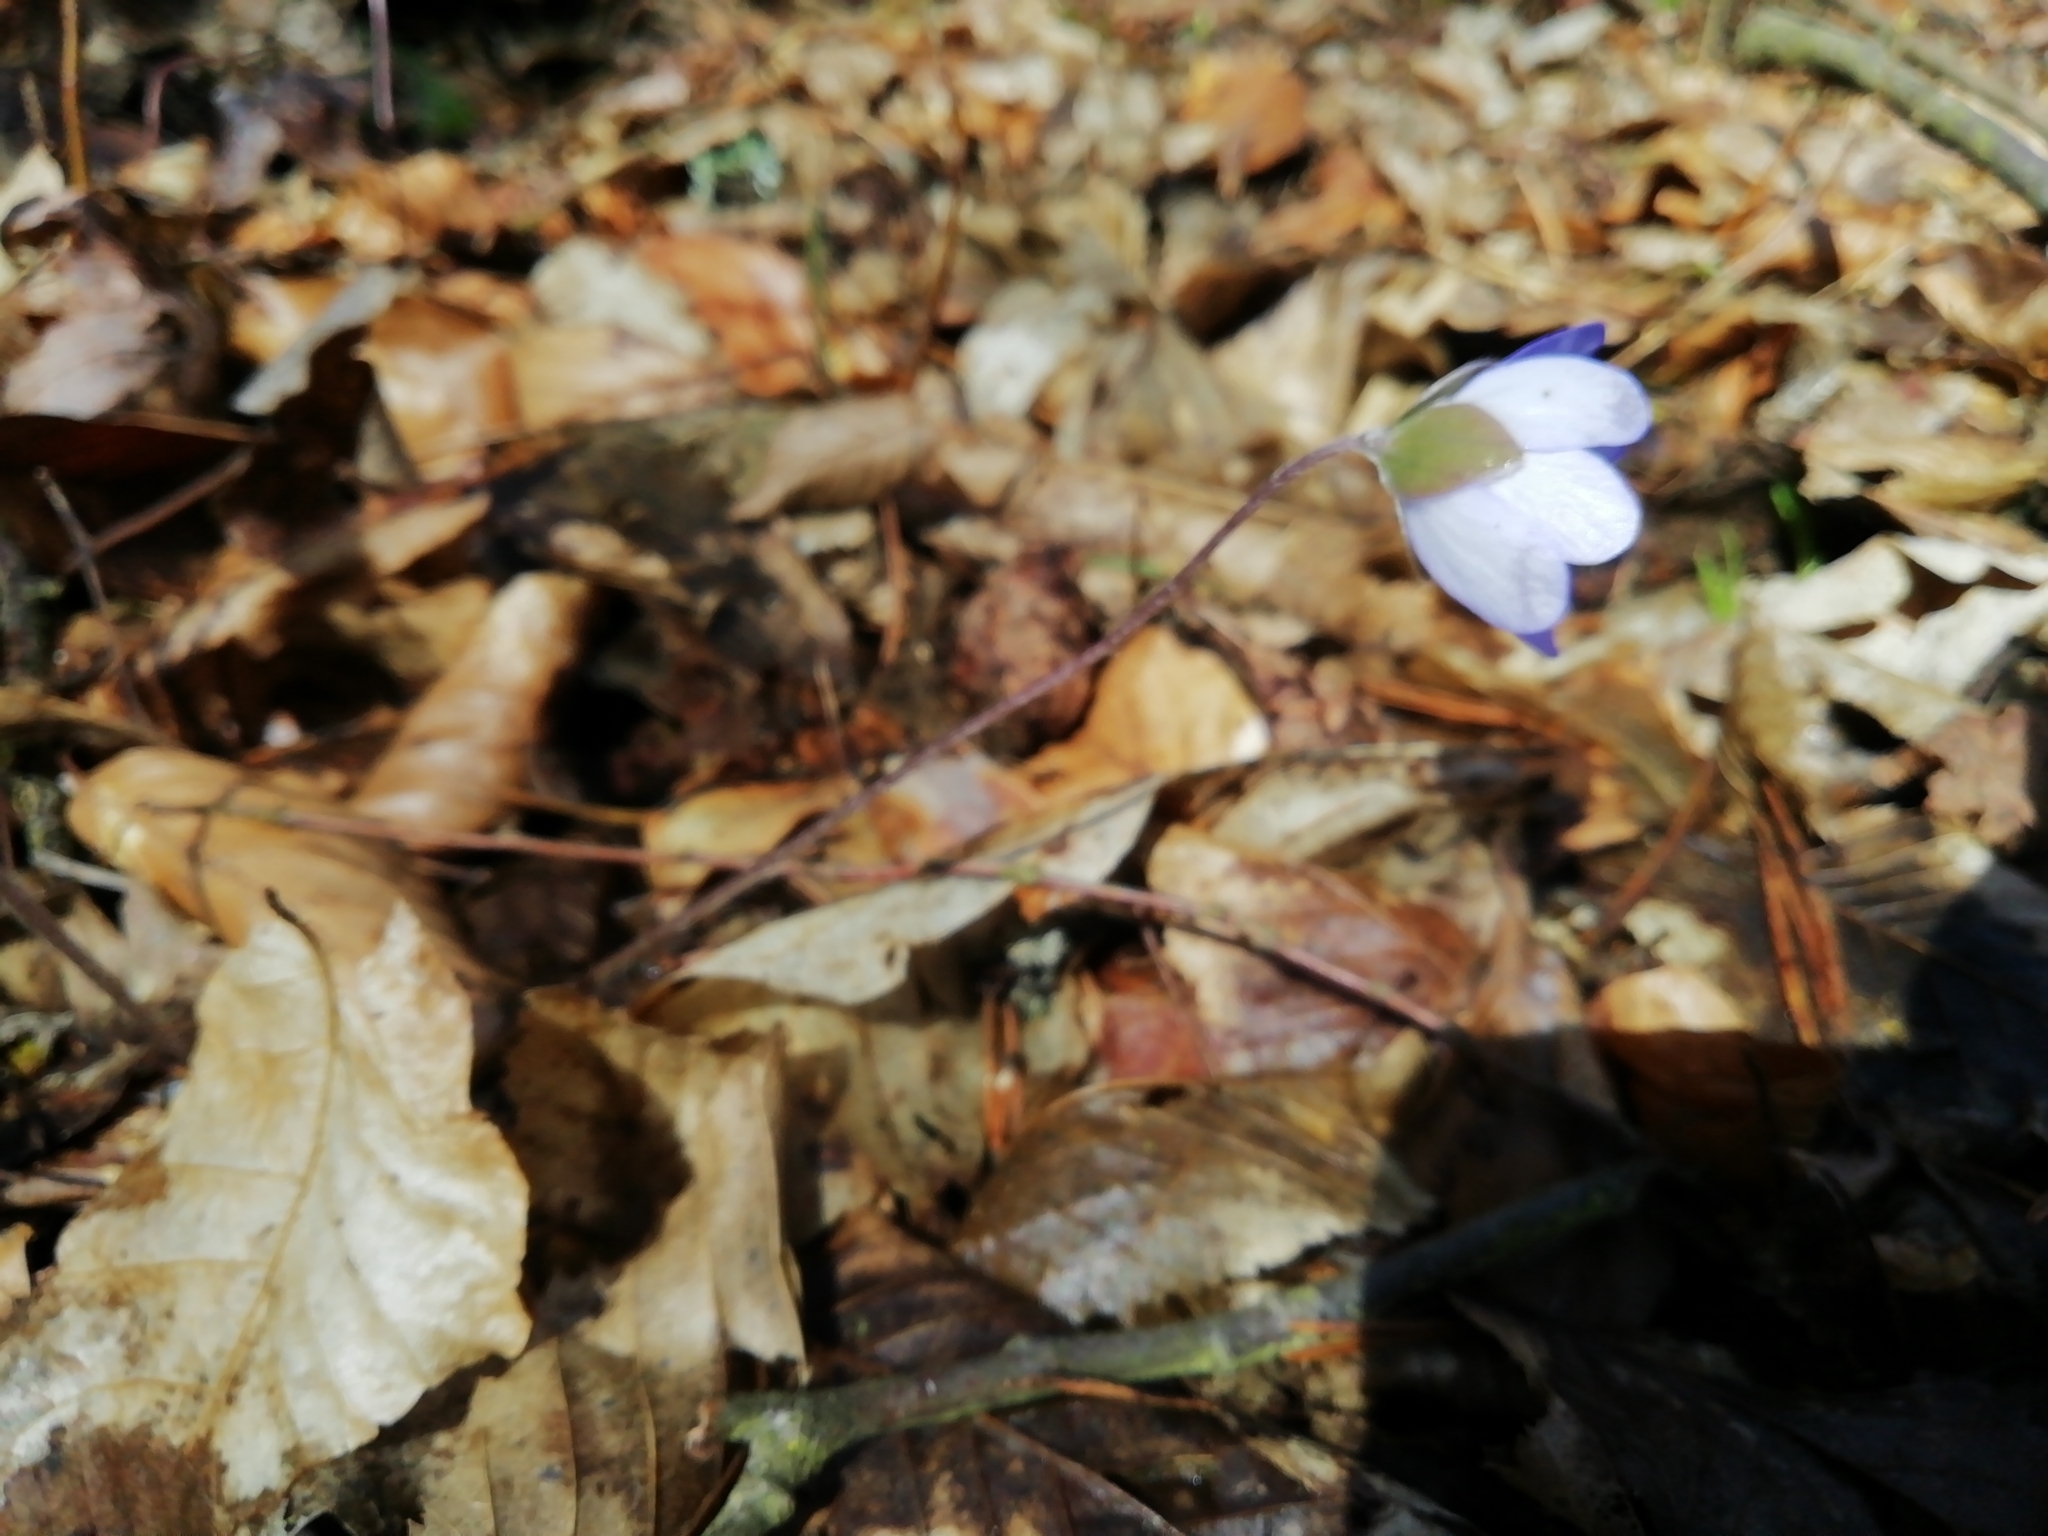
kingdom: Plantae
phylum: Tracheophyta
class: Magnoliopsida
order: Ranunculales
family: Ranunculaceae
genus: Hepatica
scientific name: Hepatica nobilis
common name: Liverleaf
